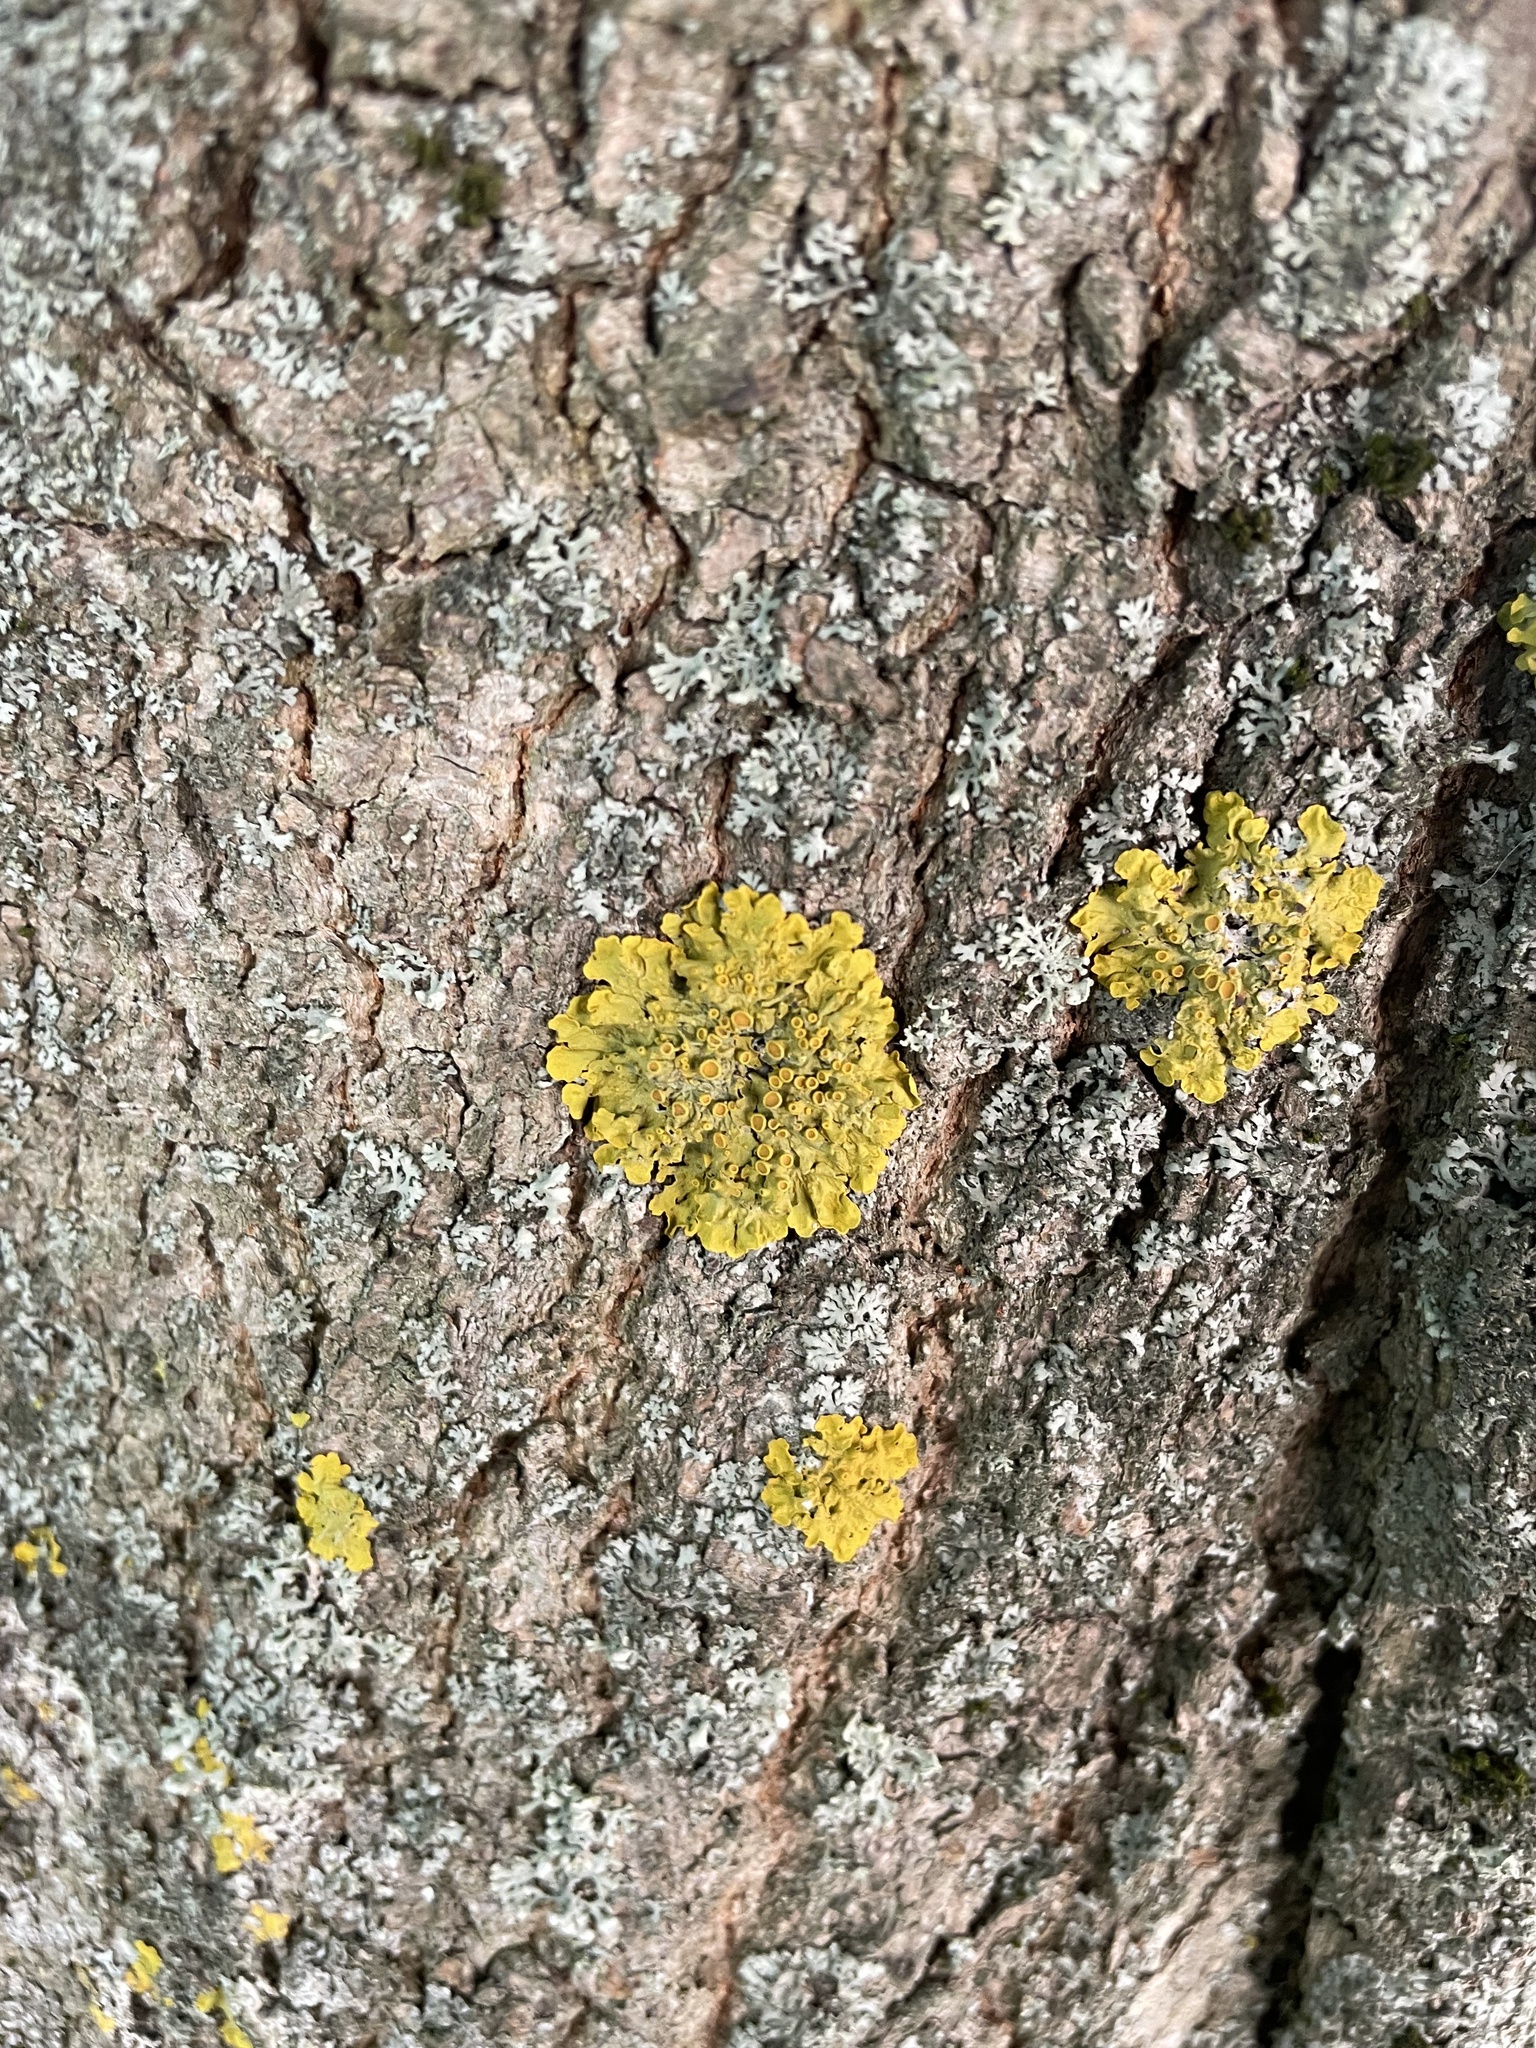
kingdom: Fungi
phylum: Ascomycota
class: Lecanoromycetes
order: Teloschistales
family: Teloschistaceae
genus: Xanthoria
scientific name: Xanthoria parietina
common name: Common orange lichen
